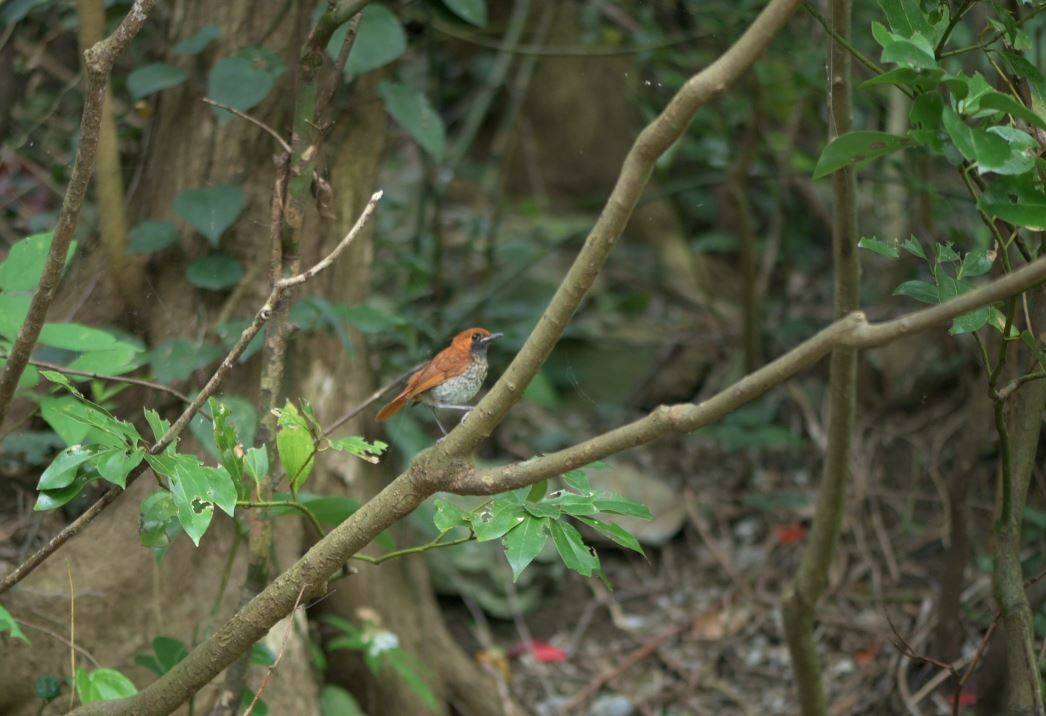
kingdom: Animalia
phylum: Chordata
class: Aves
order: Passeriformes
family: Muscicapidae
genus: Erithacus
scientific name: Erithacus komadori
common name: Ryukyu robin
